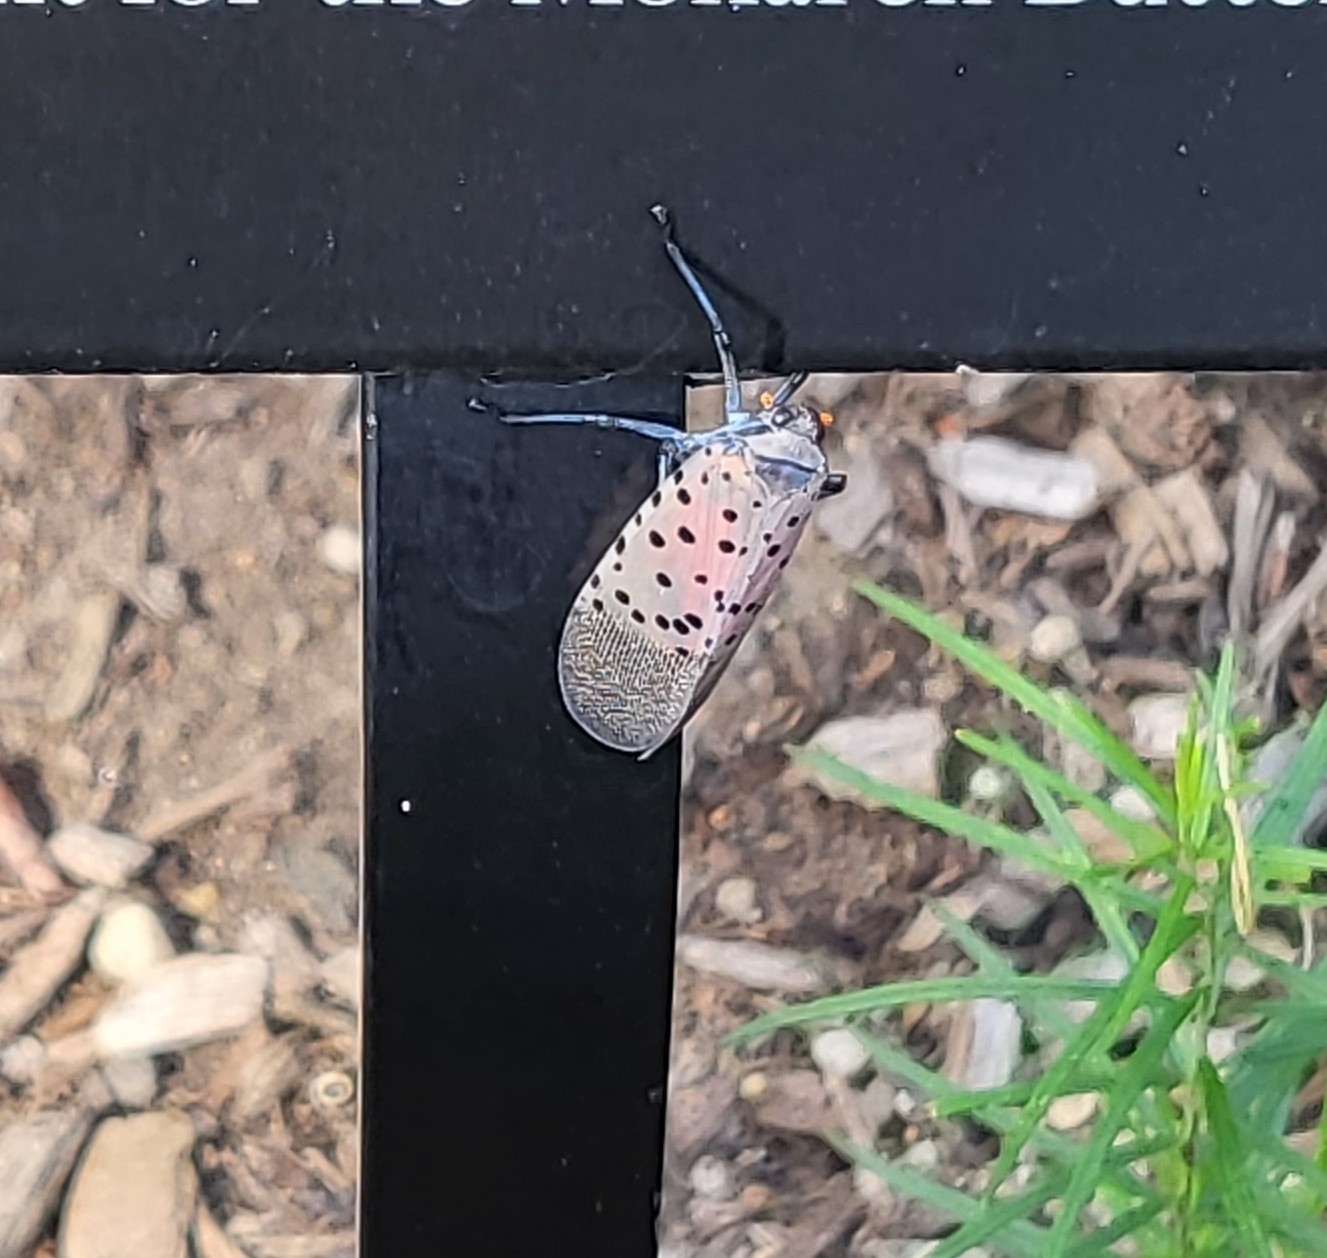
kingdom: Animalia
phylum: Arthropoda
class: Insecta
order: Hemiptera
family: Fulgoridae
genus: Lycorma
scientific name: Lycorma delicatula
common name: Spotted lanternfly
